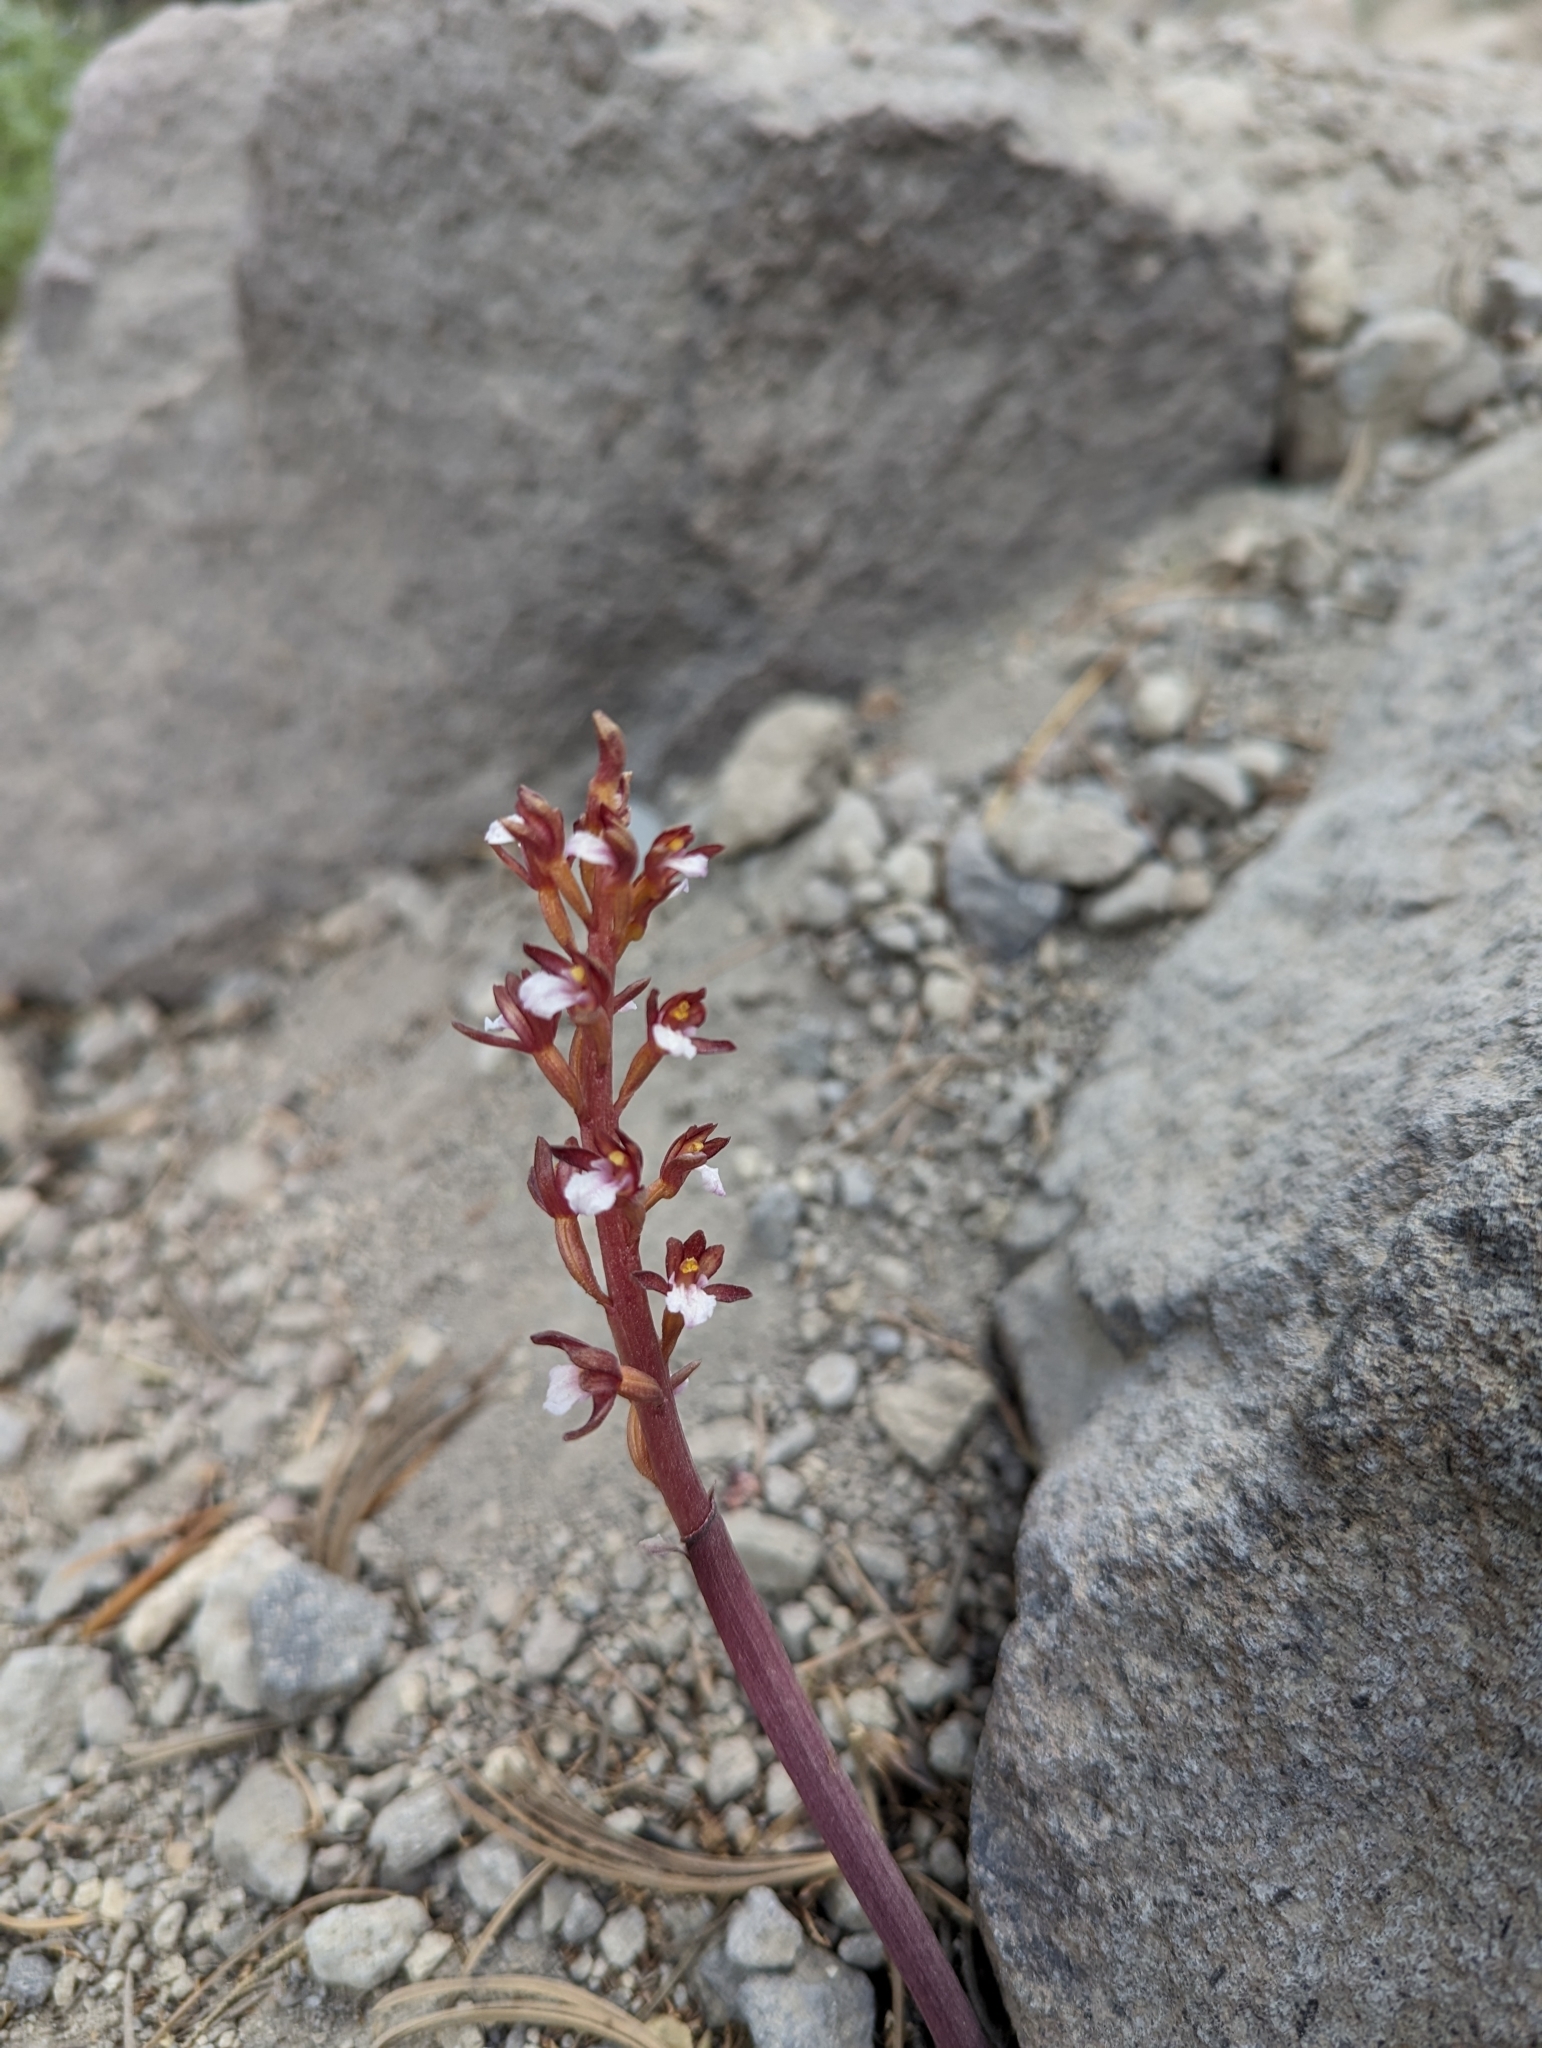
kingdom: Plantae
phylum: Tracheophyta
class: Liliopsida
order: Asparagales
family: Orchidaceae
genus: Corallorhiza
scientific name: Corallorhiza maculata
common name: Spotted coralroot
